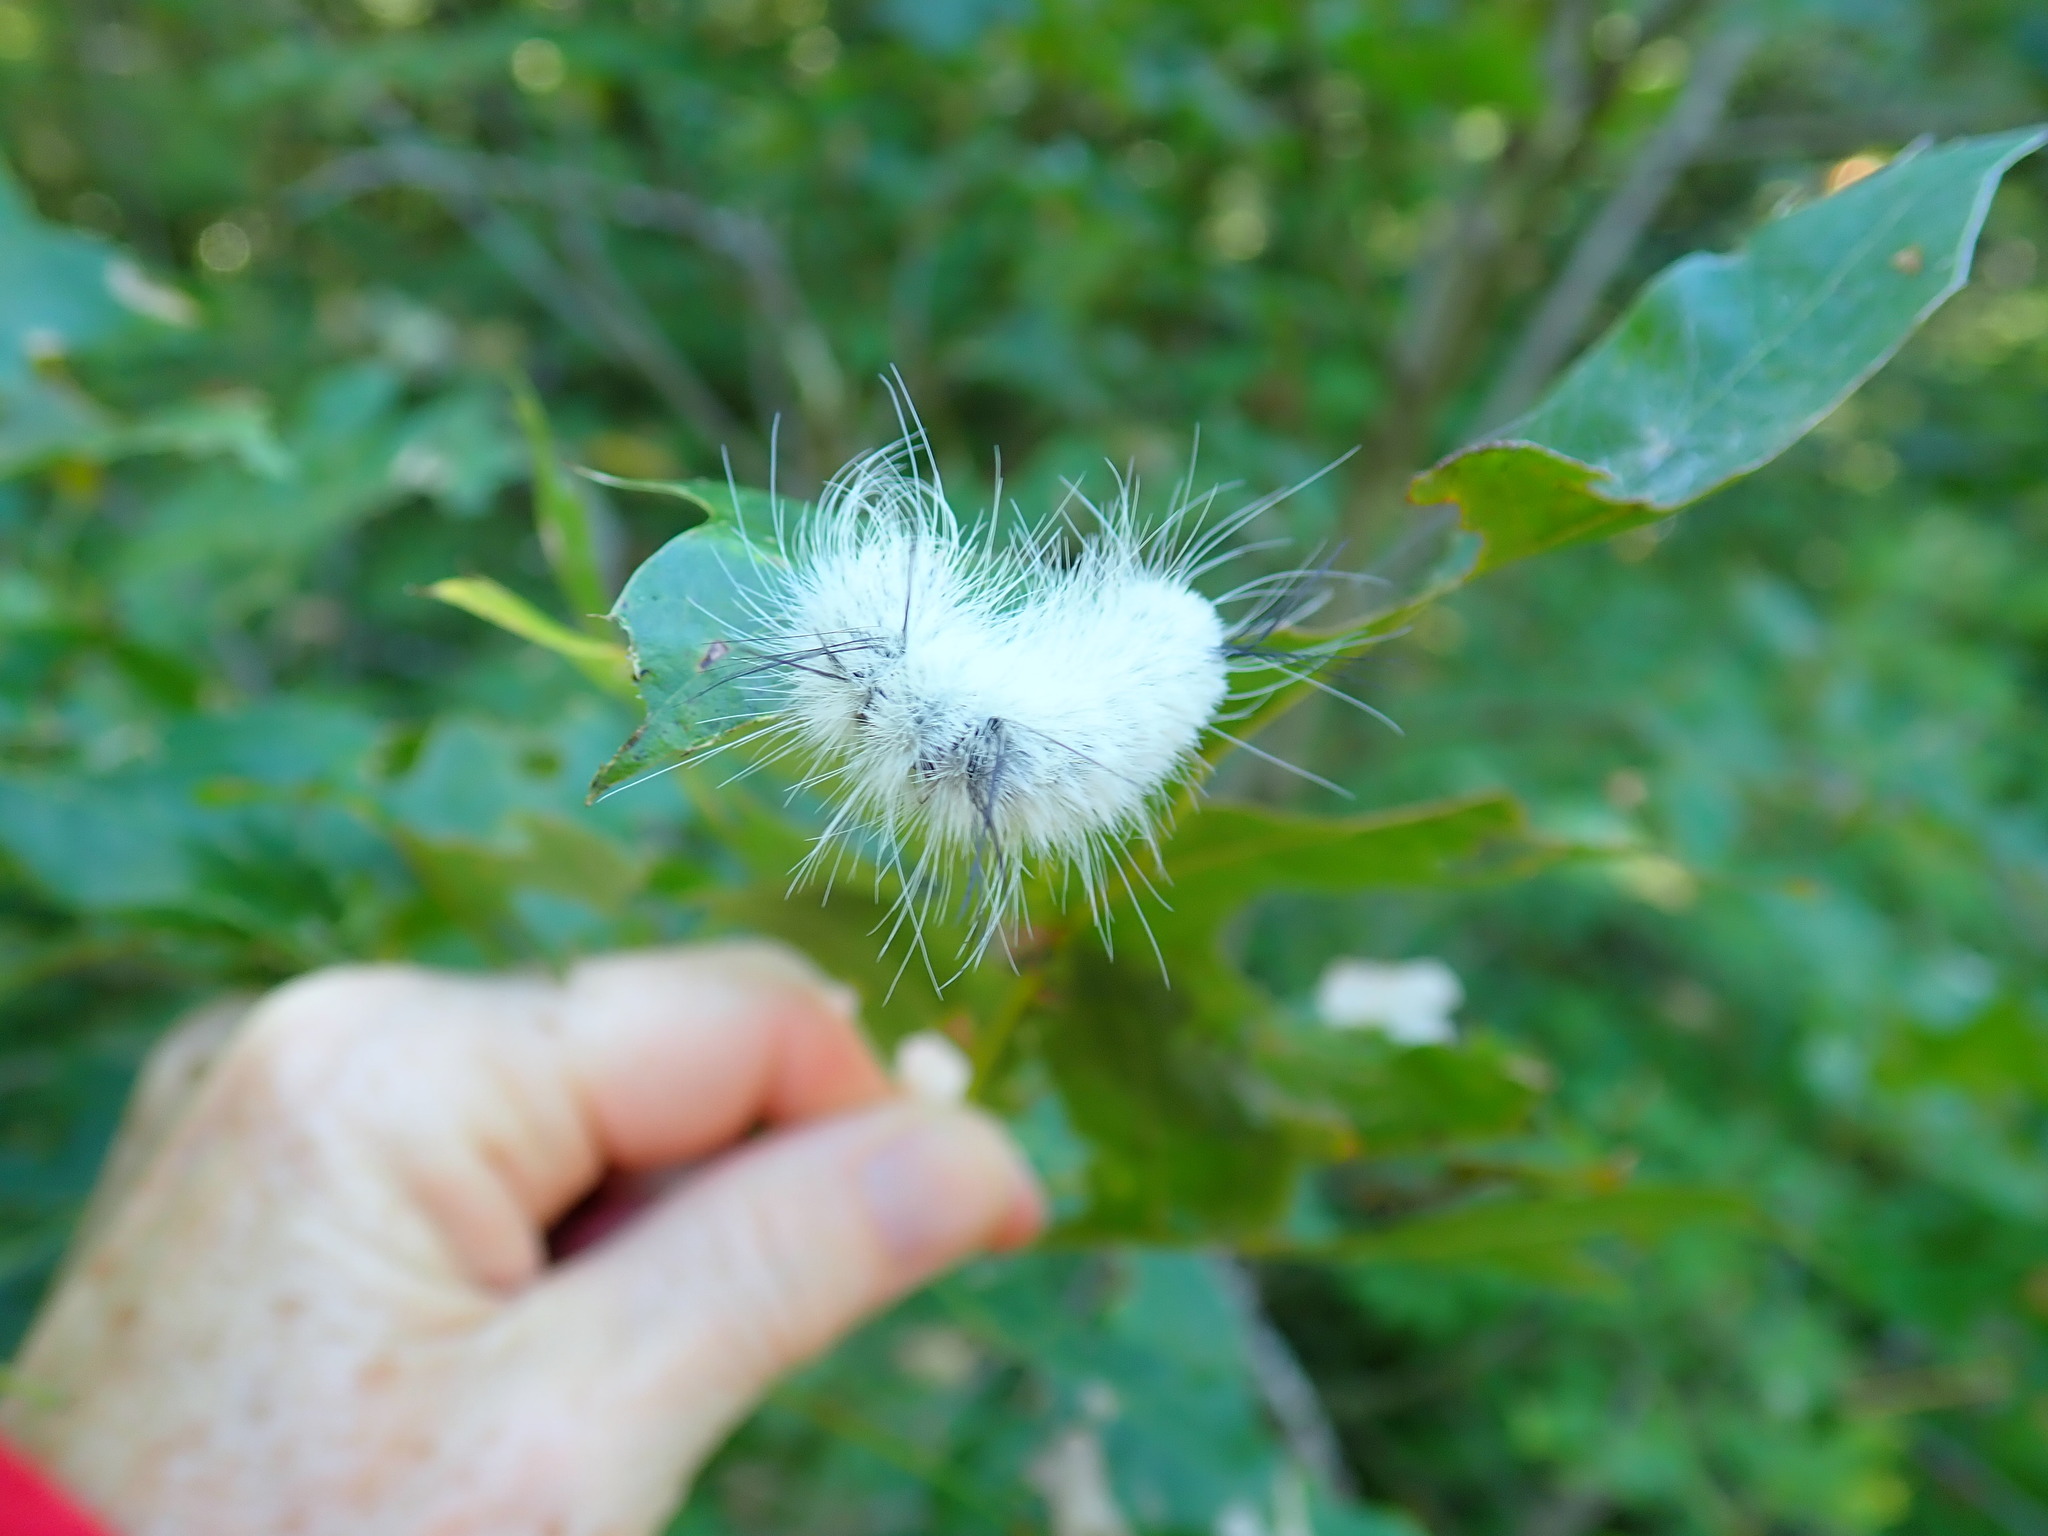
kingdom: Animalia
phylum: Arthropoda
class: Insecta
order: Lepidoptera
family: Noctuidae
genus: Acronicta
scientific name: Acronicta americana
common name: American dagger
